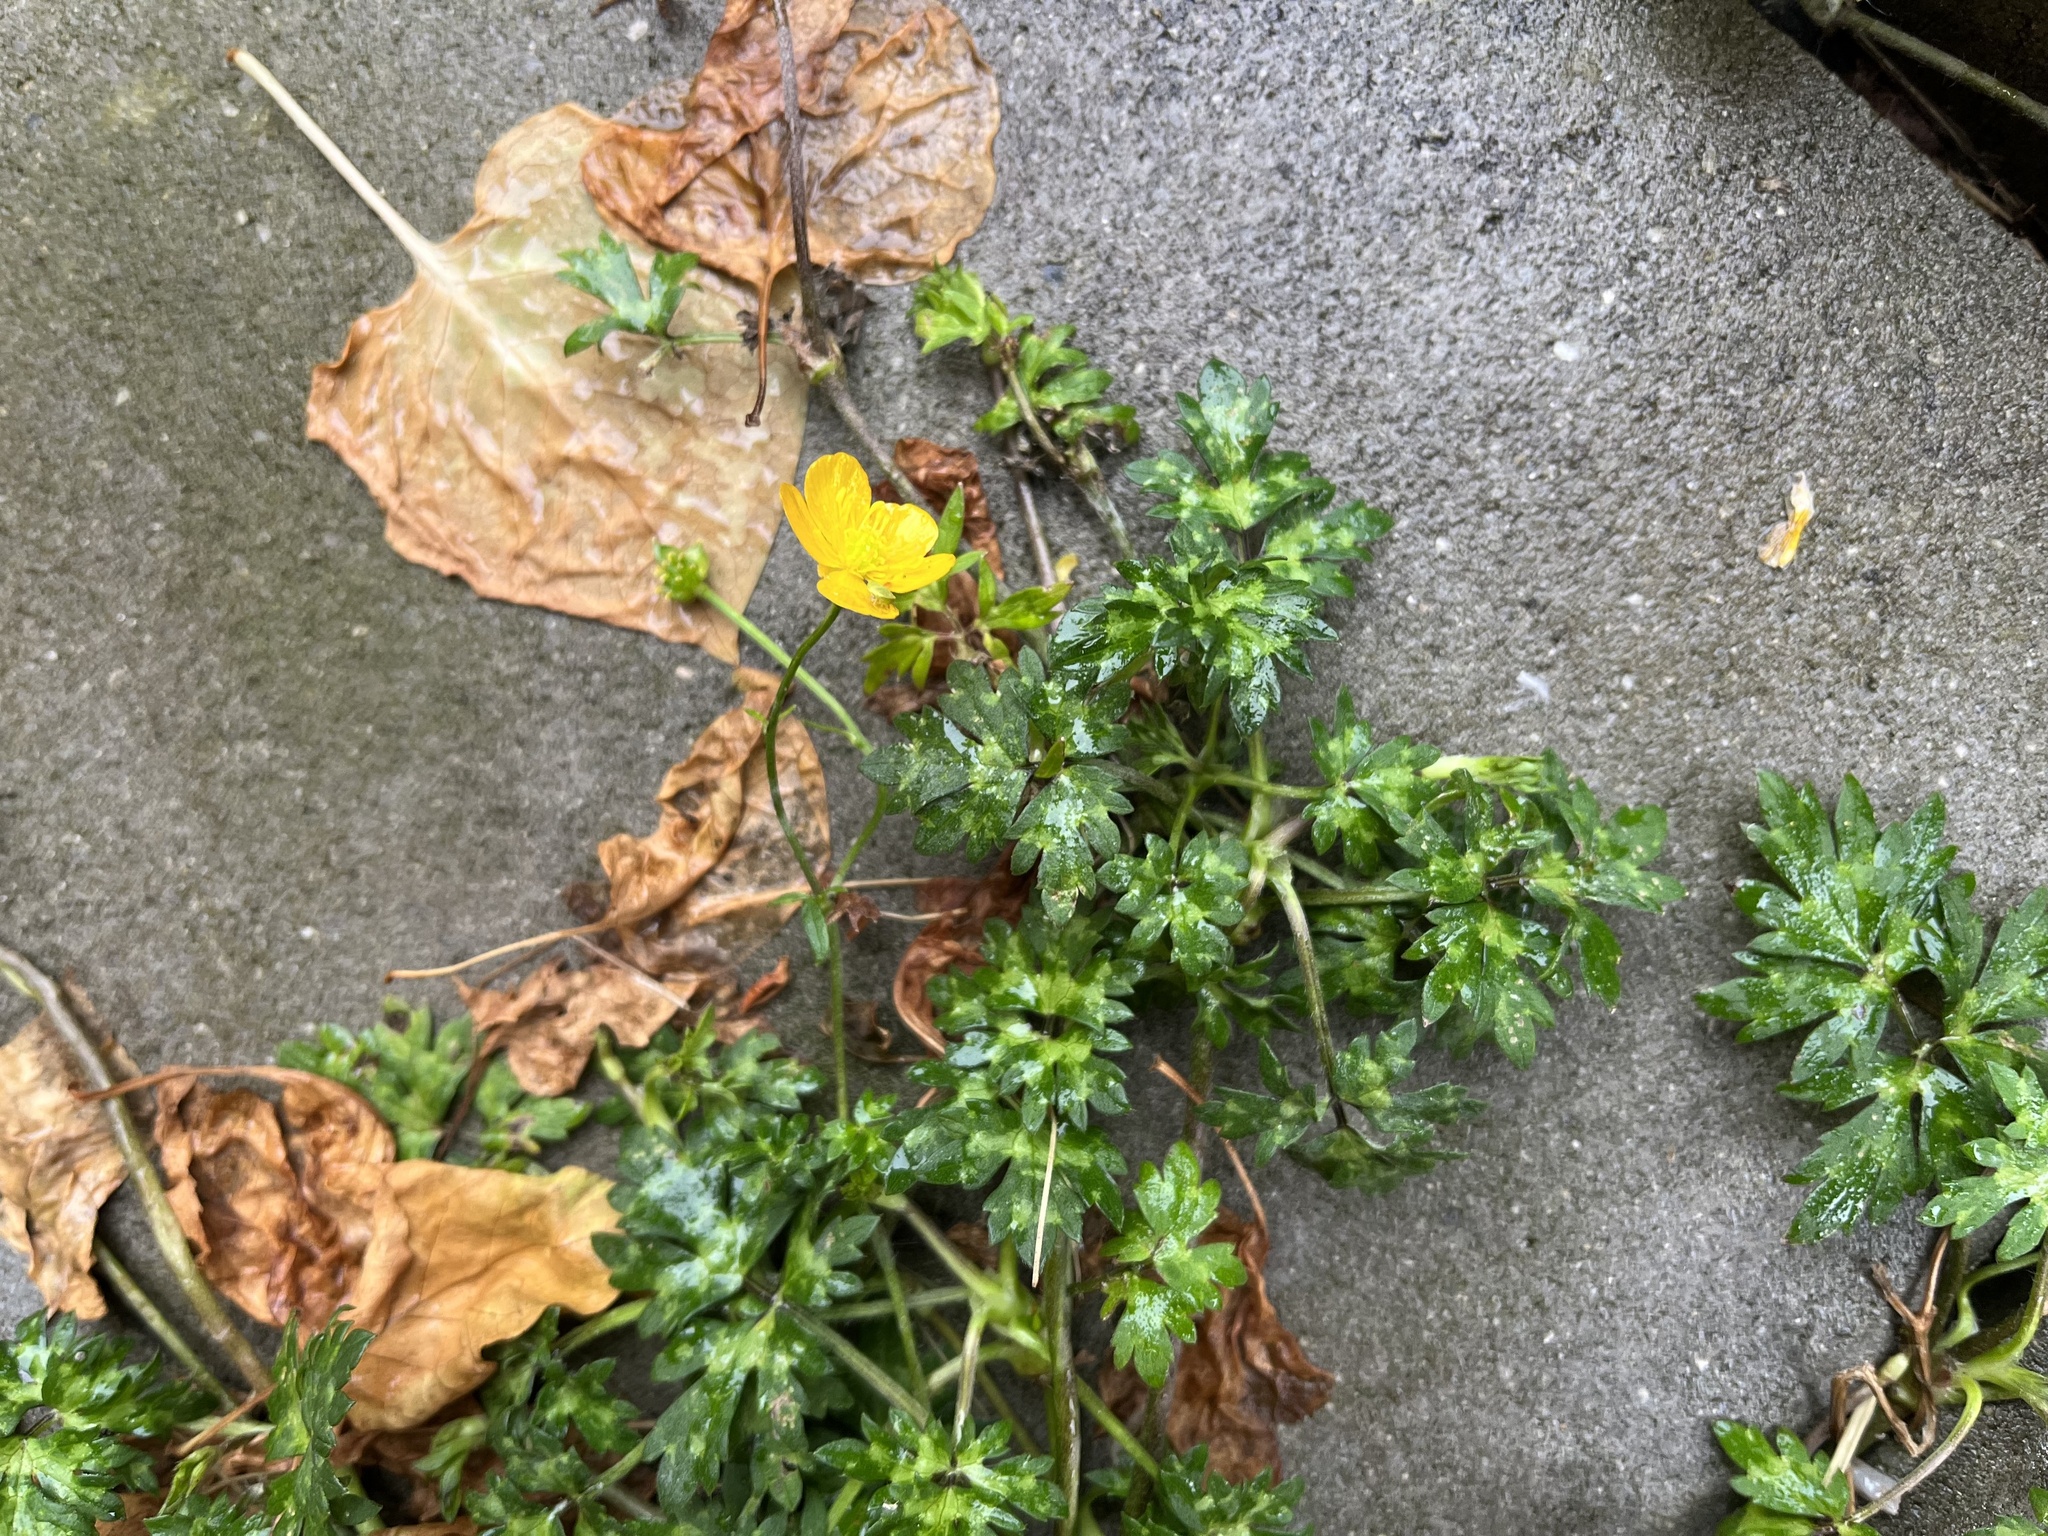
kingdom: Plantae
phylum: Tracheophyta
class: Magnoliopsida
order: Ranunculales
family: Ranunculaceae
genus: Ranunculus
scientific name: Ranunculus repens
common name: Creeping buttercup
